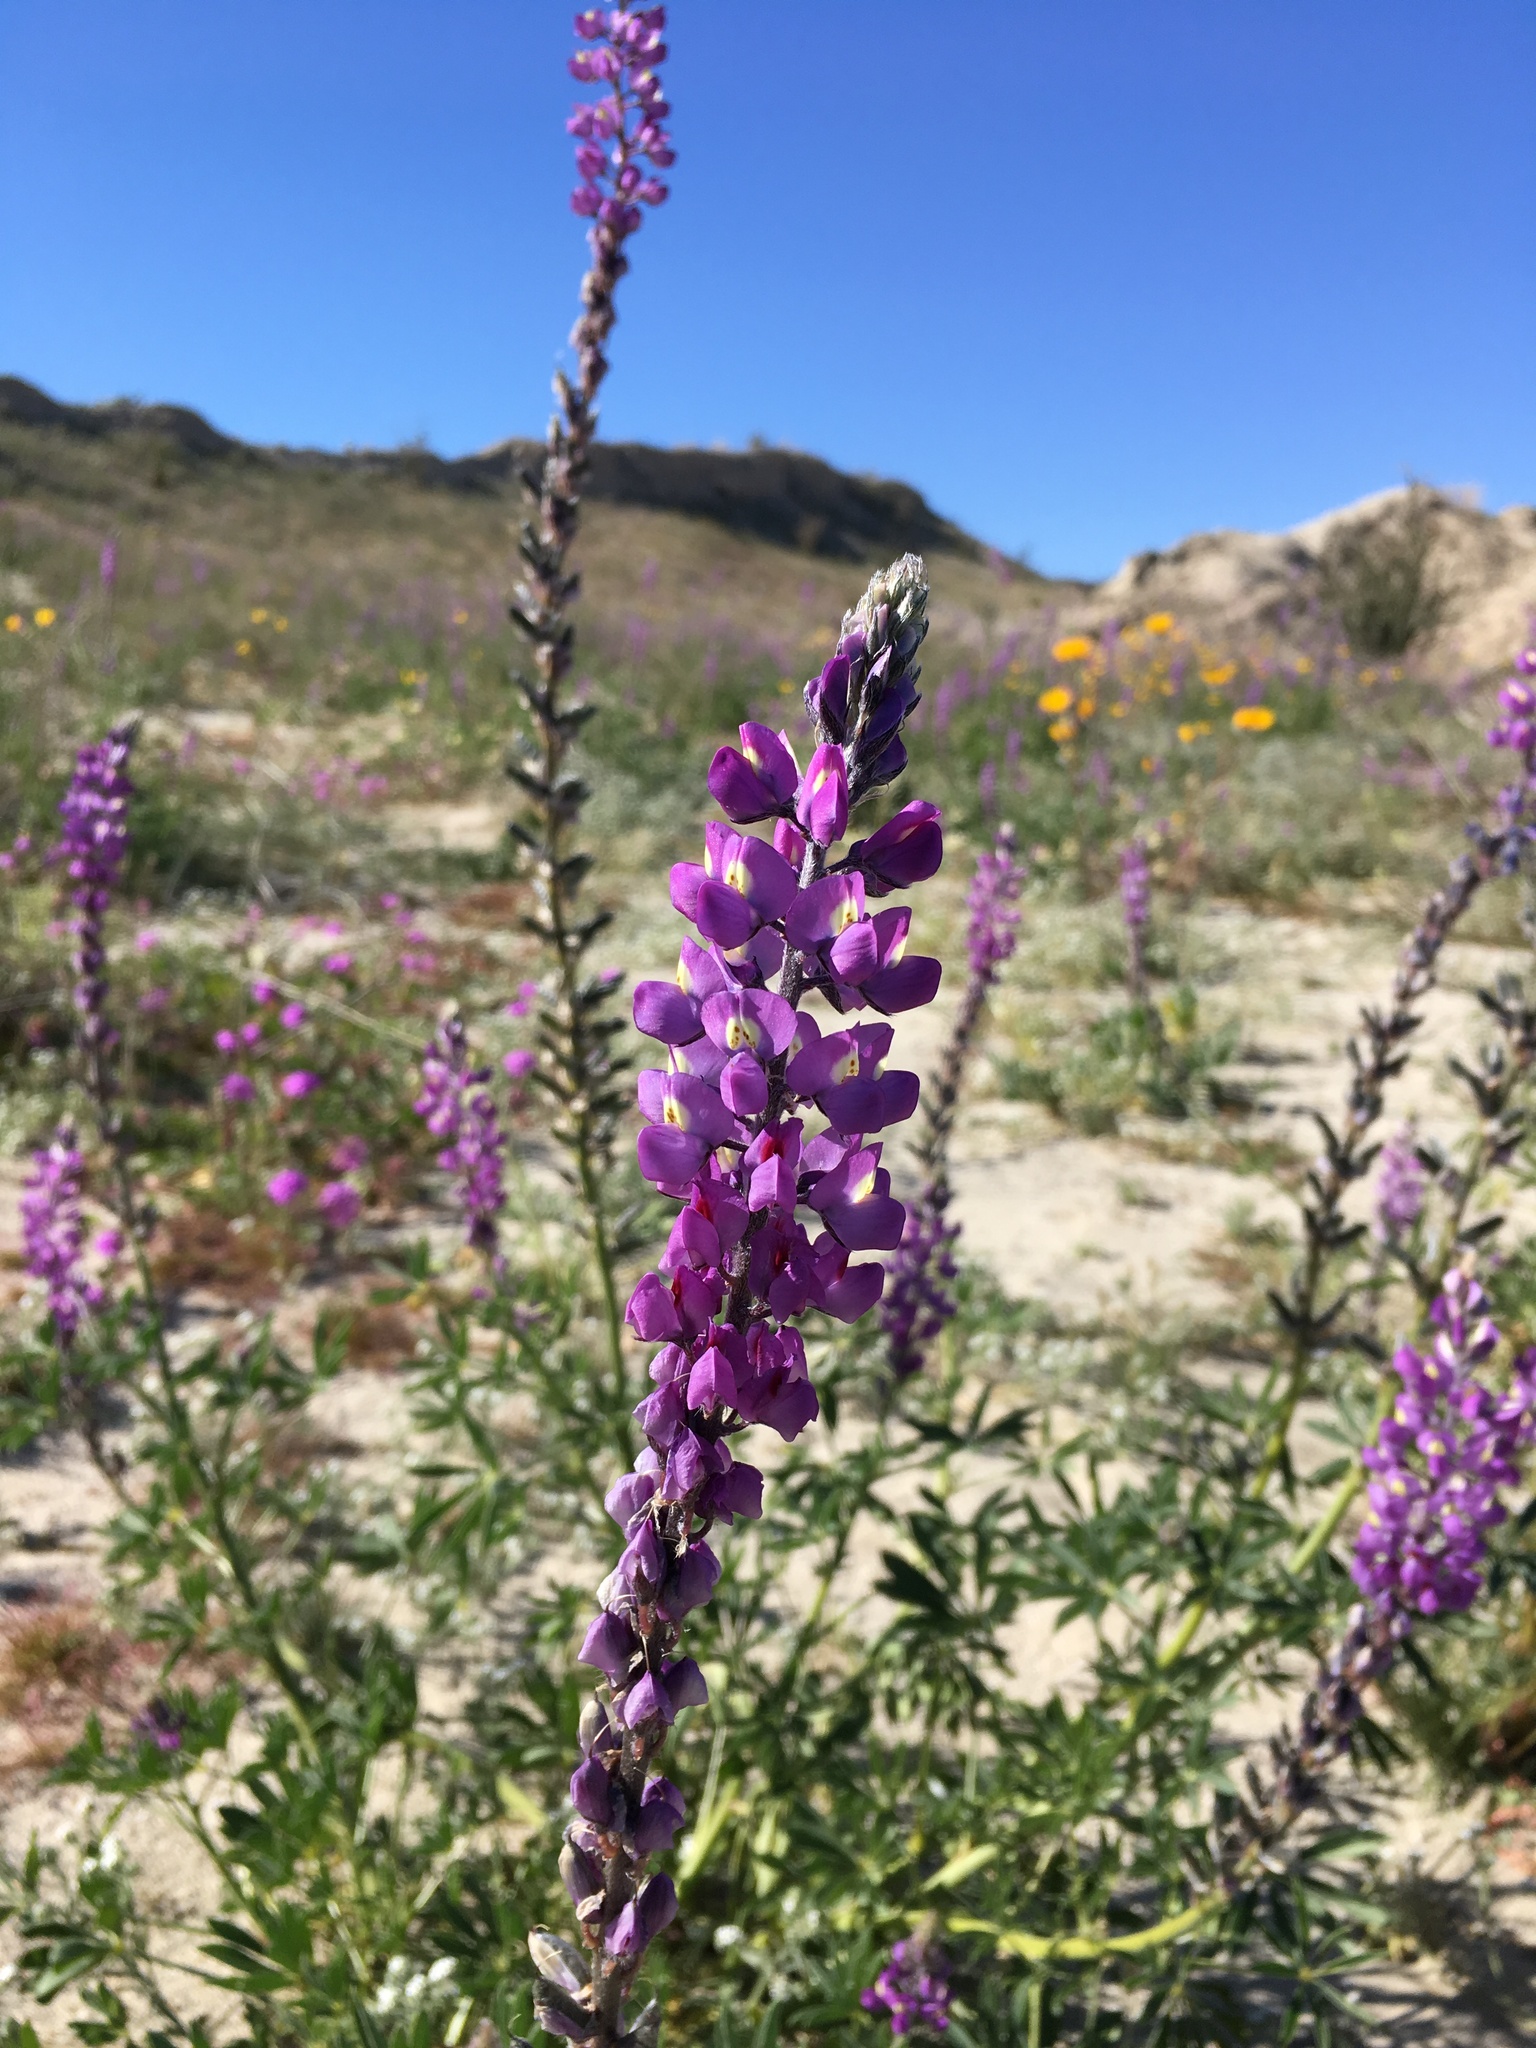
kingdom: Plantae
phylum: Tracheophyta
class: Magnoliopsida
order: Fabales
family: Fabaceae
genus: Lupinus
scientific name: Lupinus arizonicus
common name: Arizona lupine
